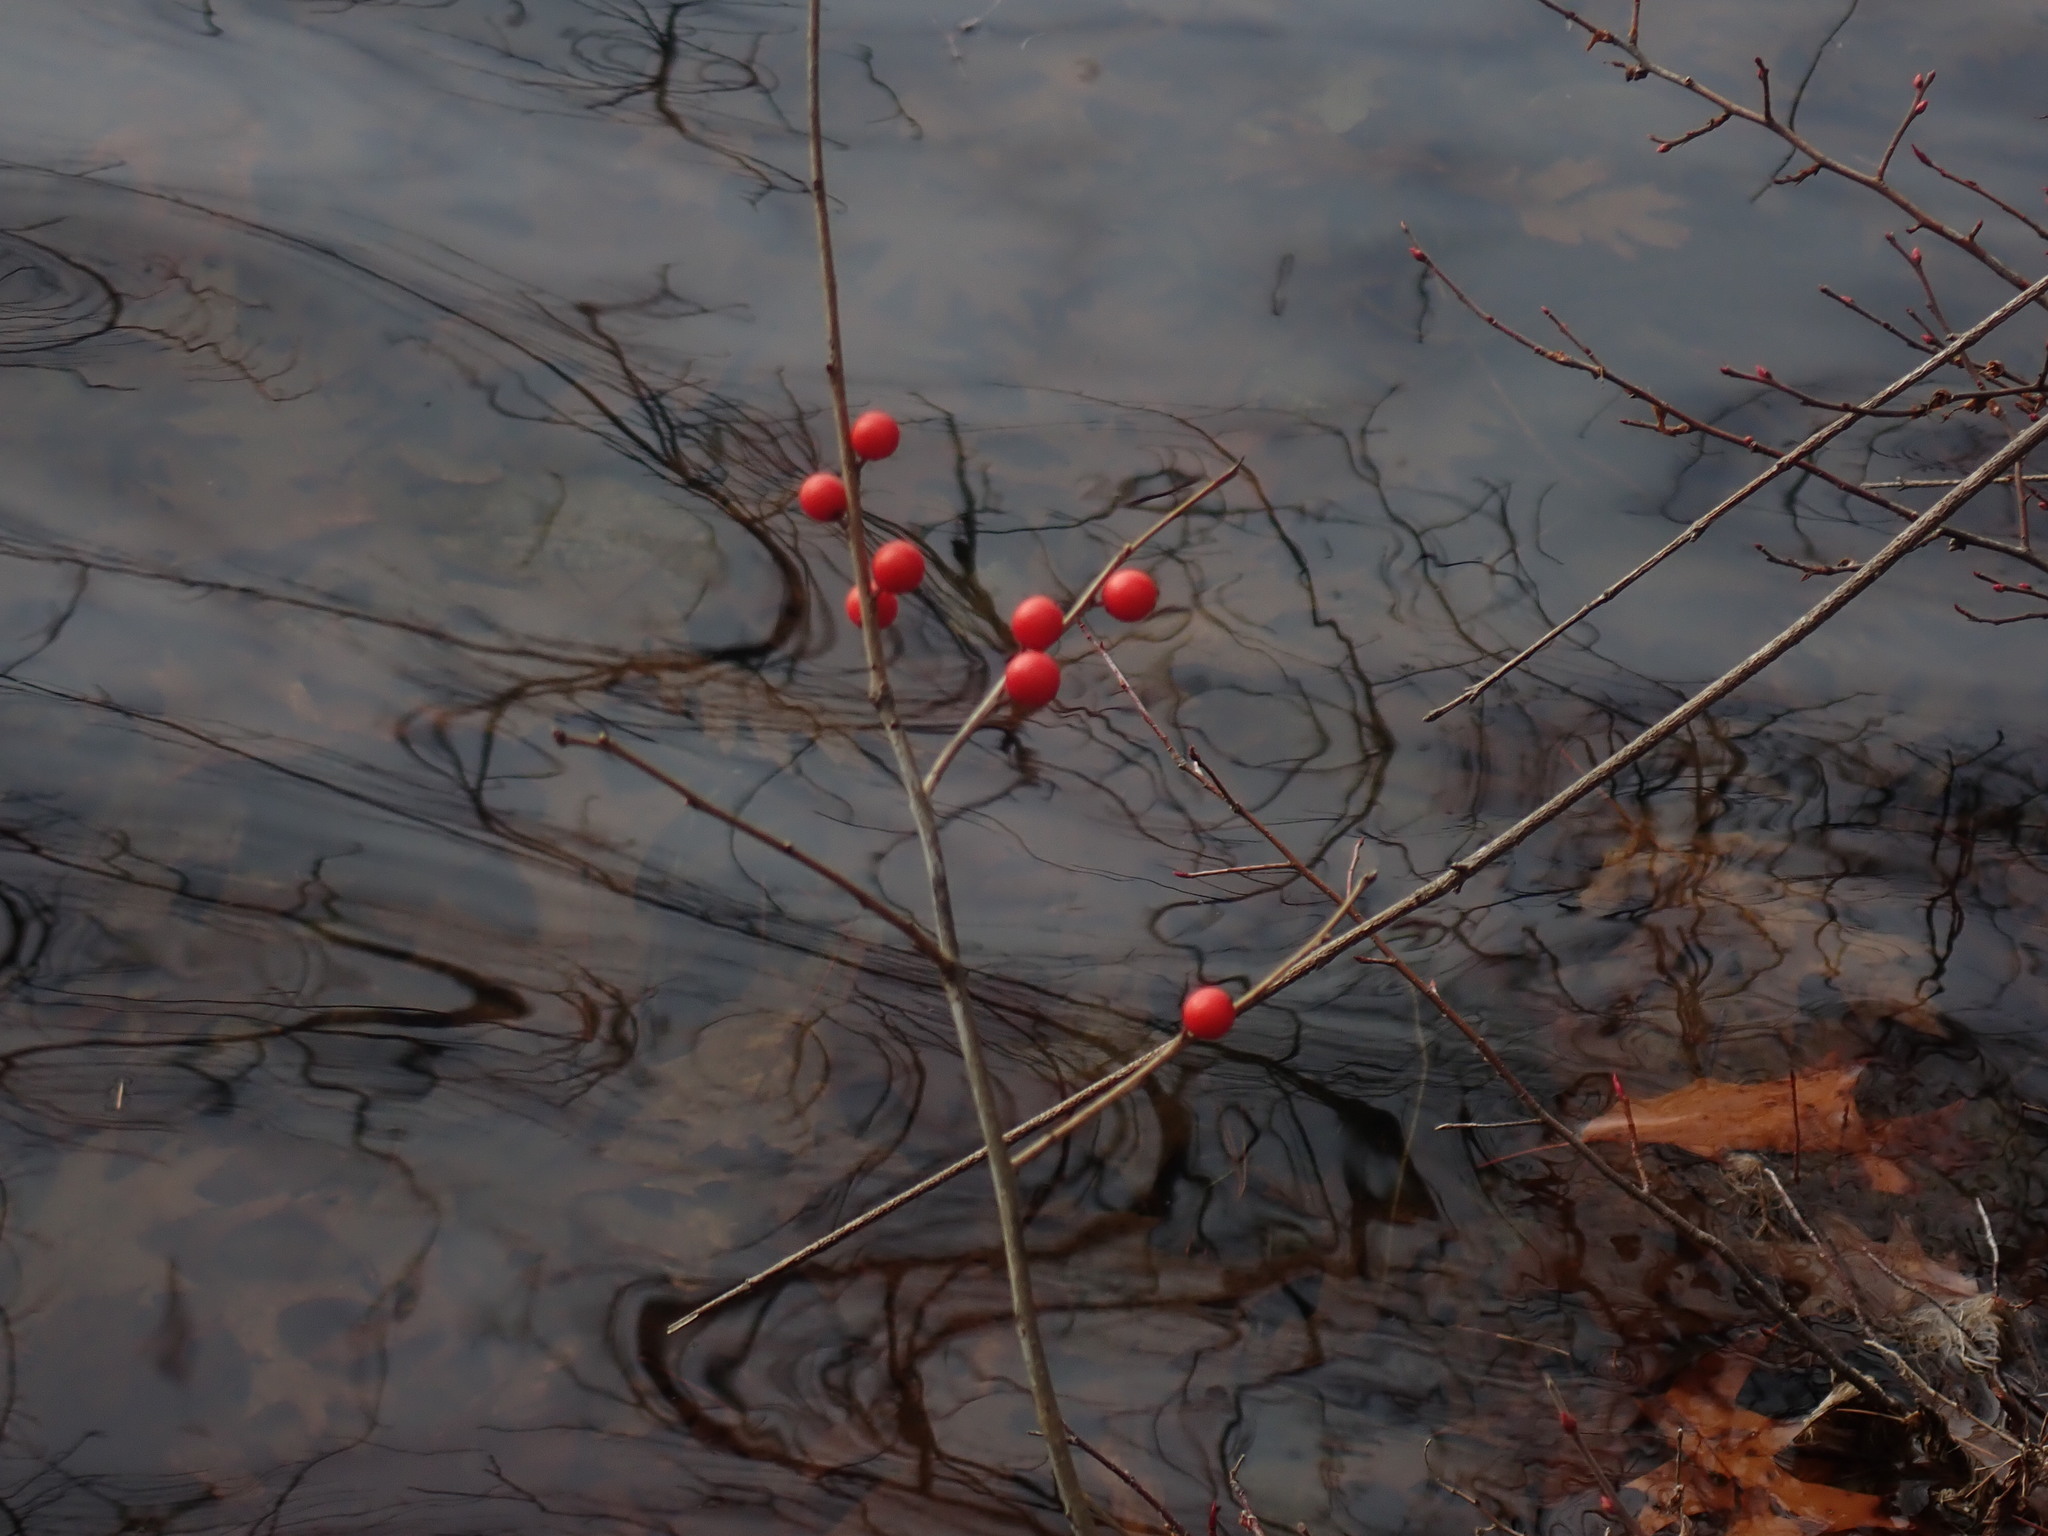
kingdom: Plantae
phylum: Tracheophyta
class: Magnoliopsida
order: Aquifoliales
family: Aquifoliaceae
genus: Ilex
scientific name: Ilex verticillata
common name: Virginia winterberry
